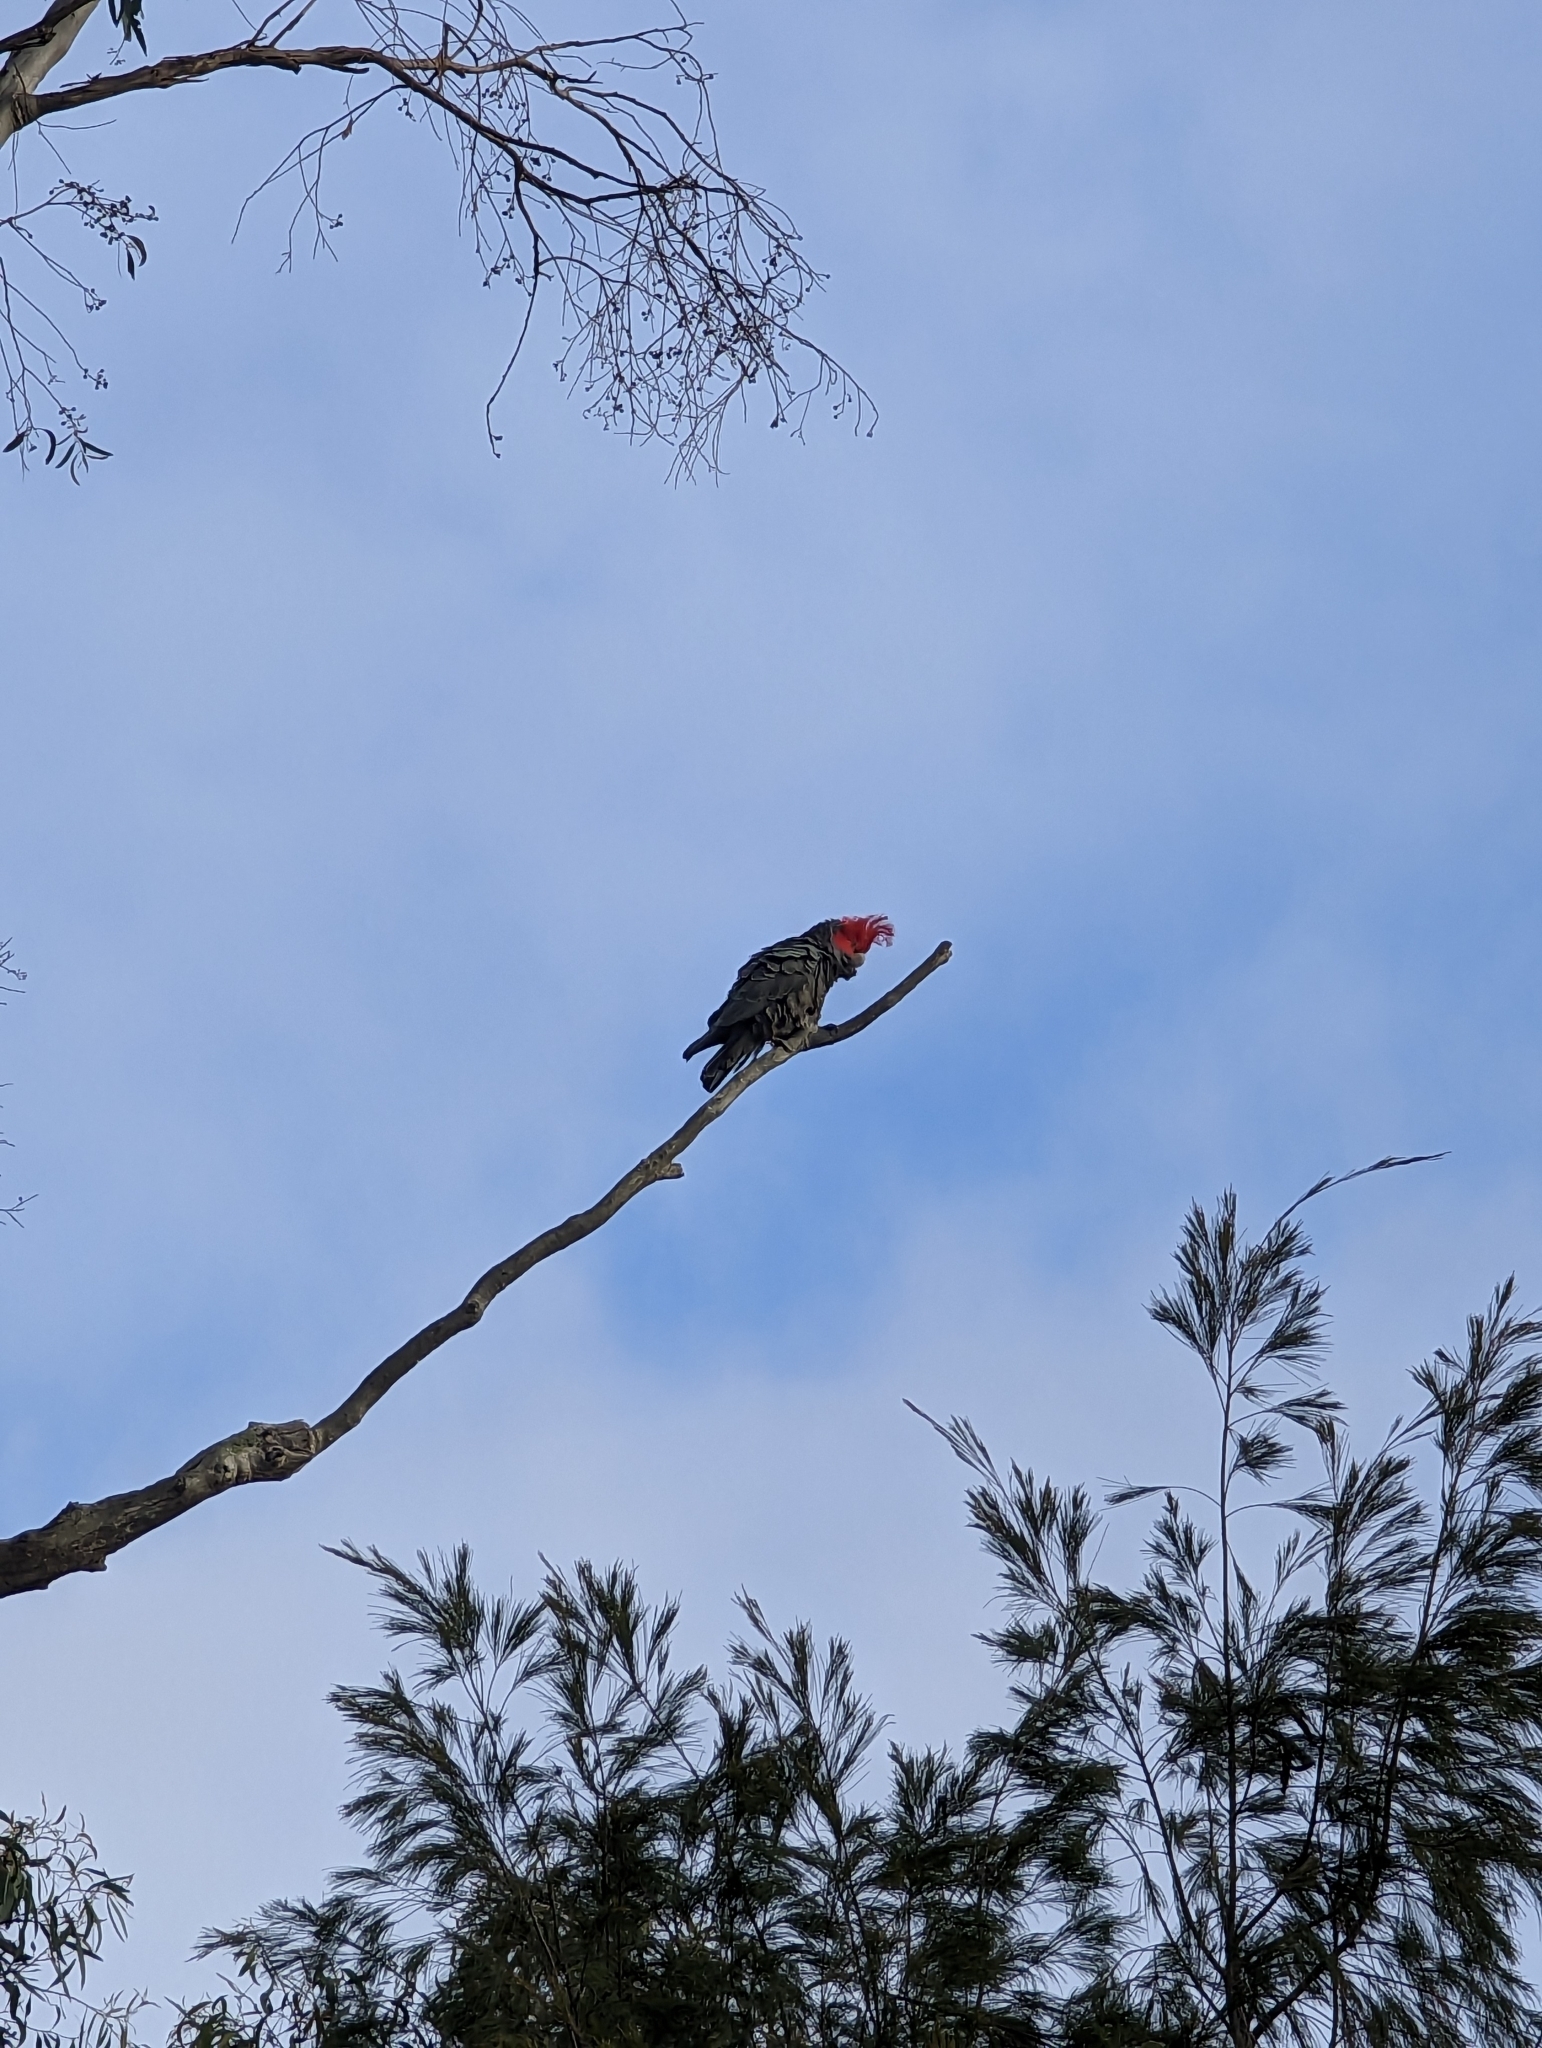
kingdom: Animalia
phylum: Chordata
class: Aves
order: Psittaciformes
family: Psittacidae
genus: Callocephalon
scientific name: Callocephalon fimbriatum
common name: Gang-gang cockatoo
